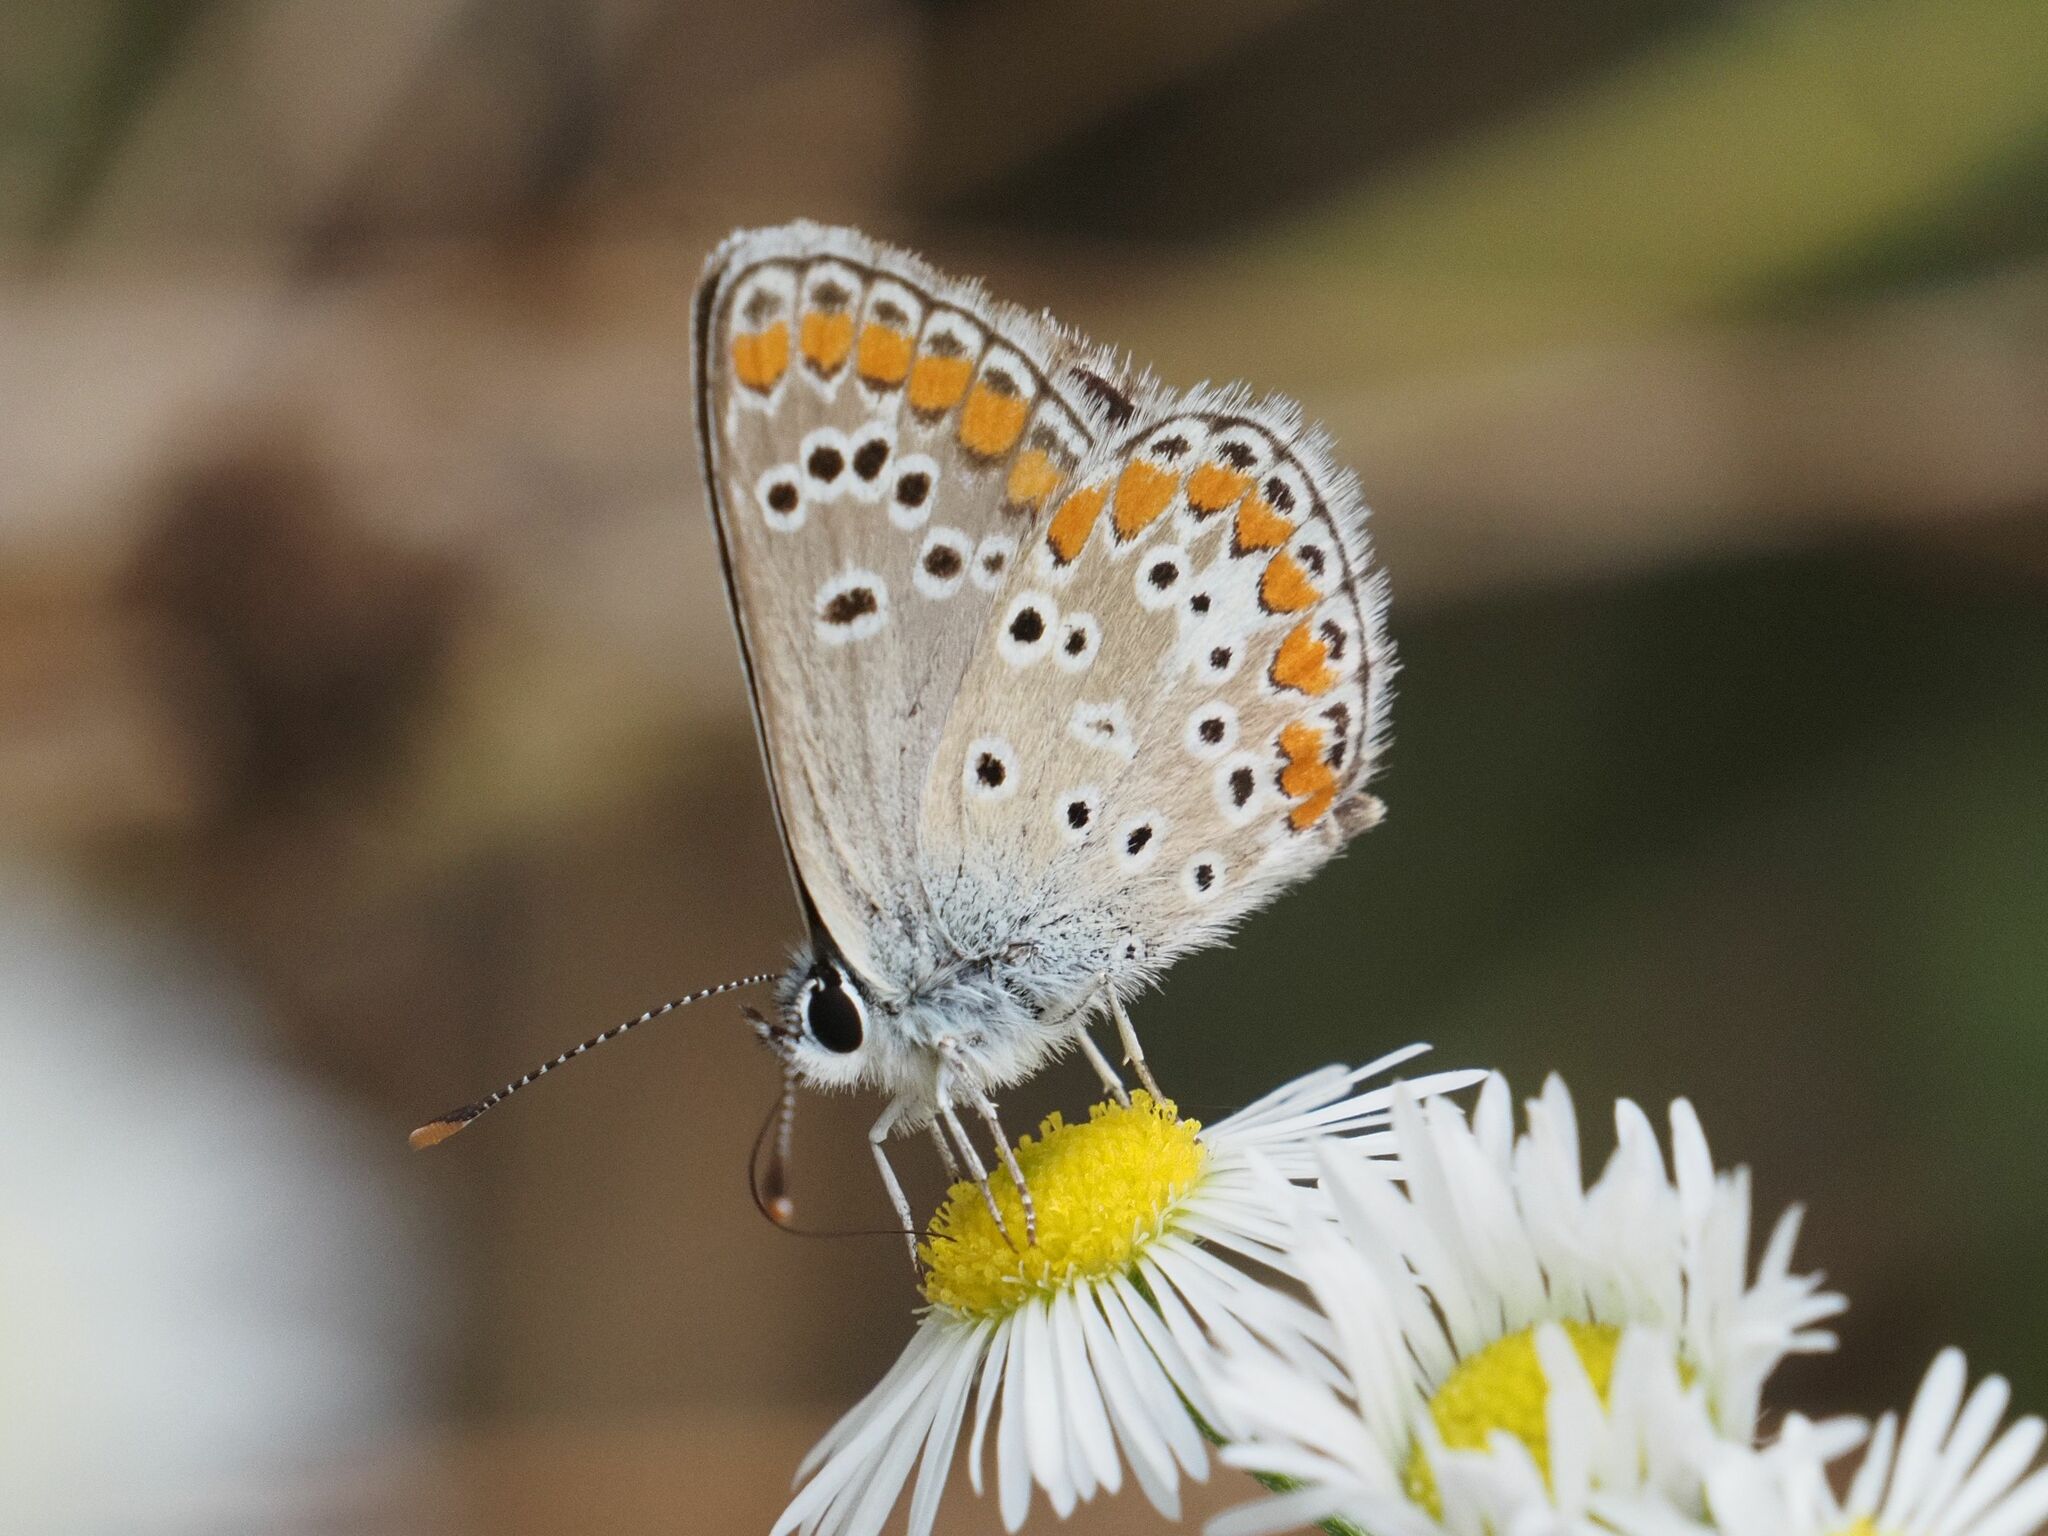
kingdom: Animalia
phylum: Arthropoda
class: Insecta
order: Lepidoptera
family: Lycaenidae
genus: Aricia
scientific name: Aricia agestis
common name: Brown argus
